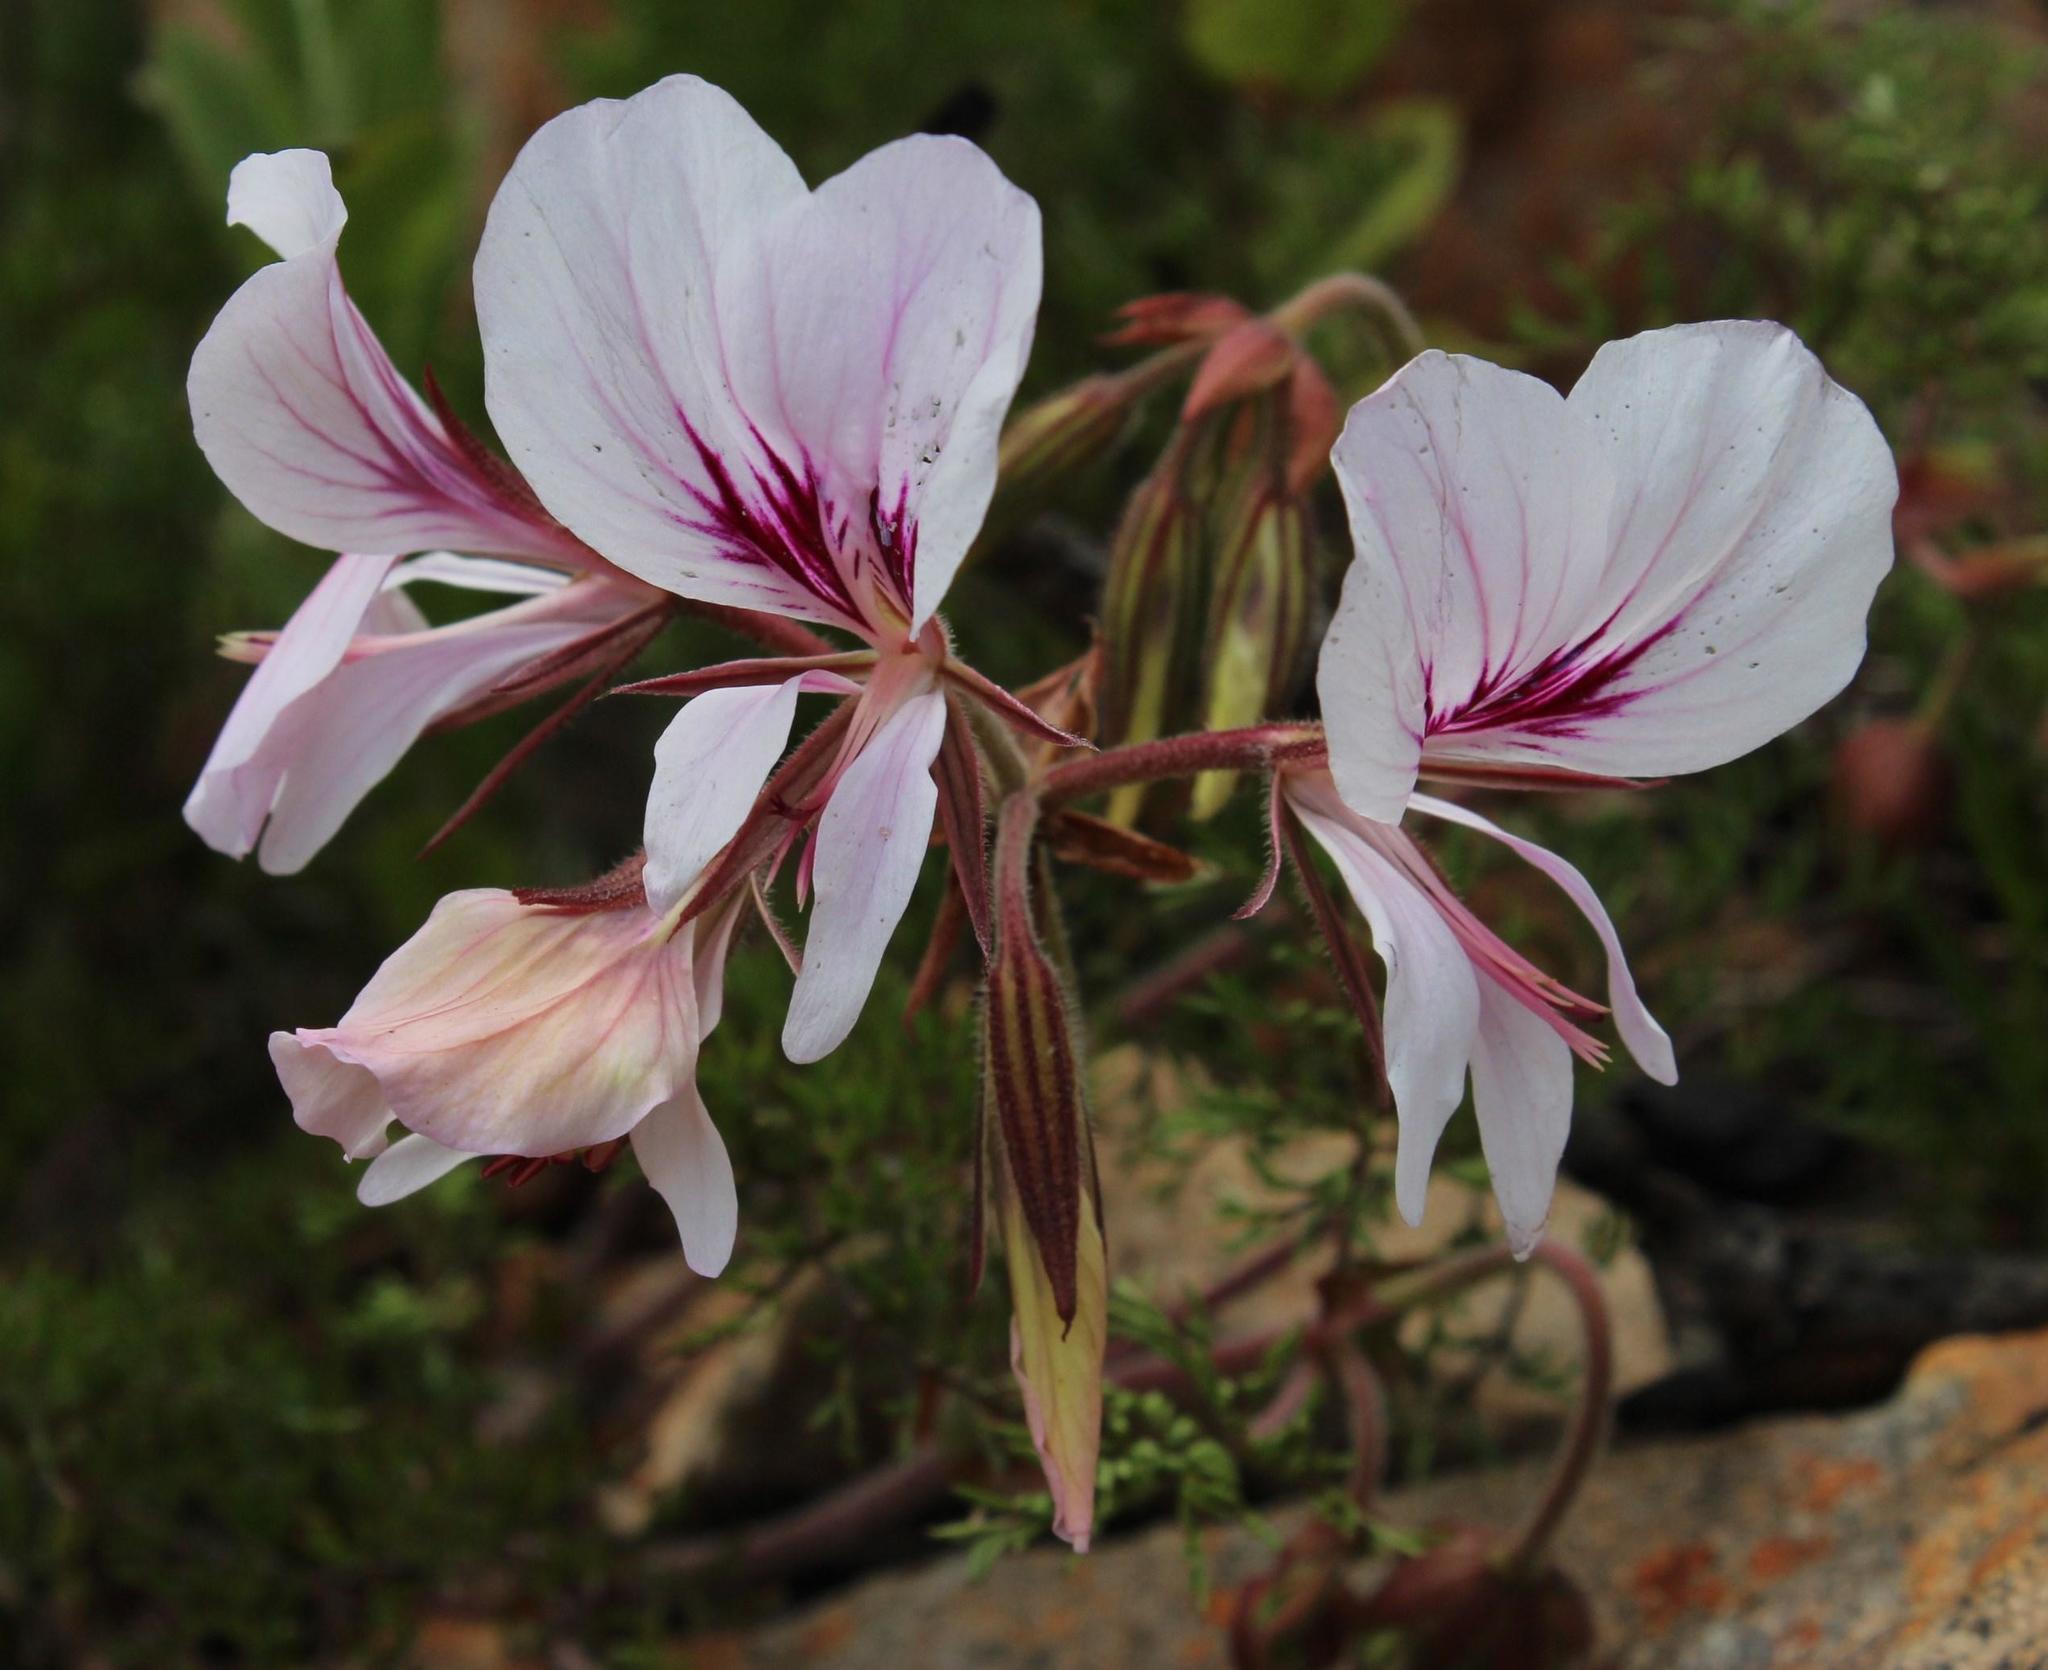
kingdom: Plantae
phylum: Tracheophyta
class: Magnoliopsida
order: Geraniales
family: Geraniaceae
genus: Pelargonium
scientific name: Pelargonium myrrhifolium
